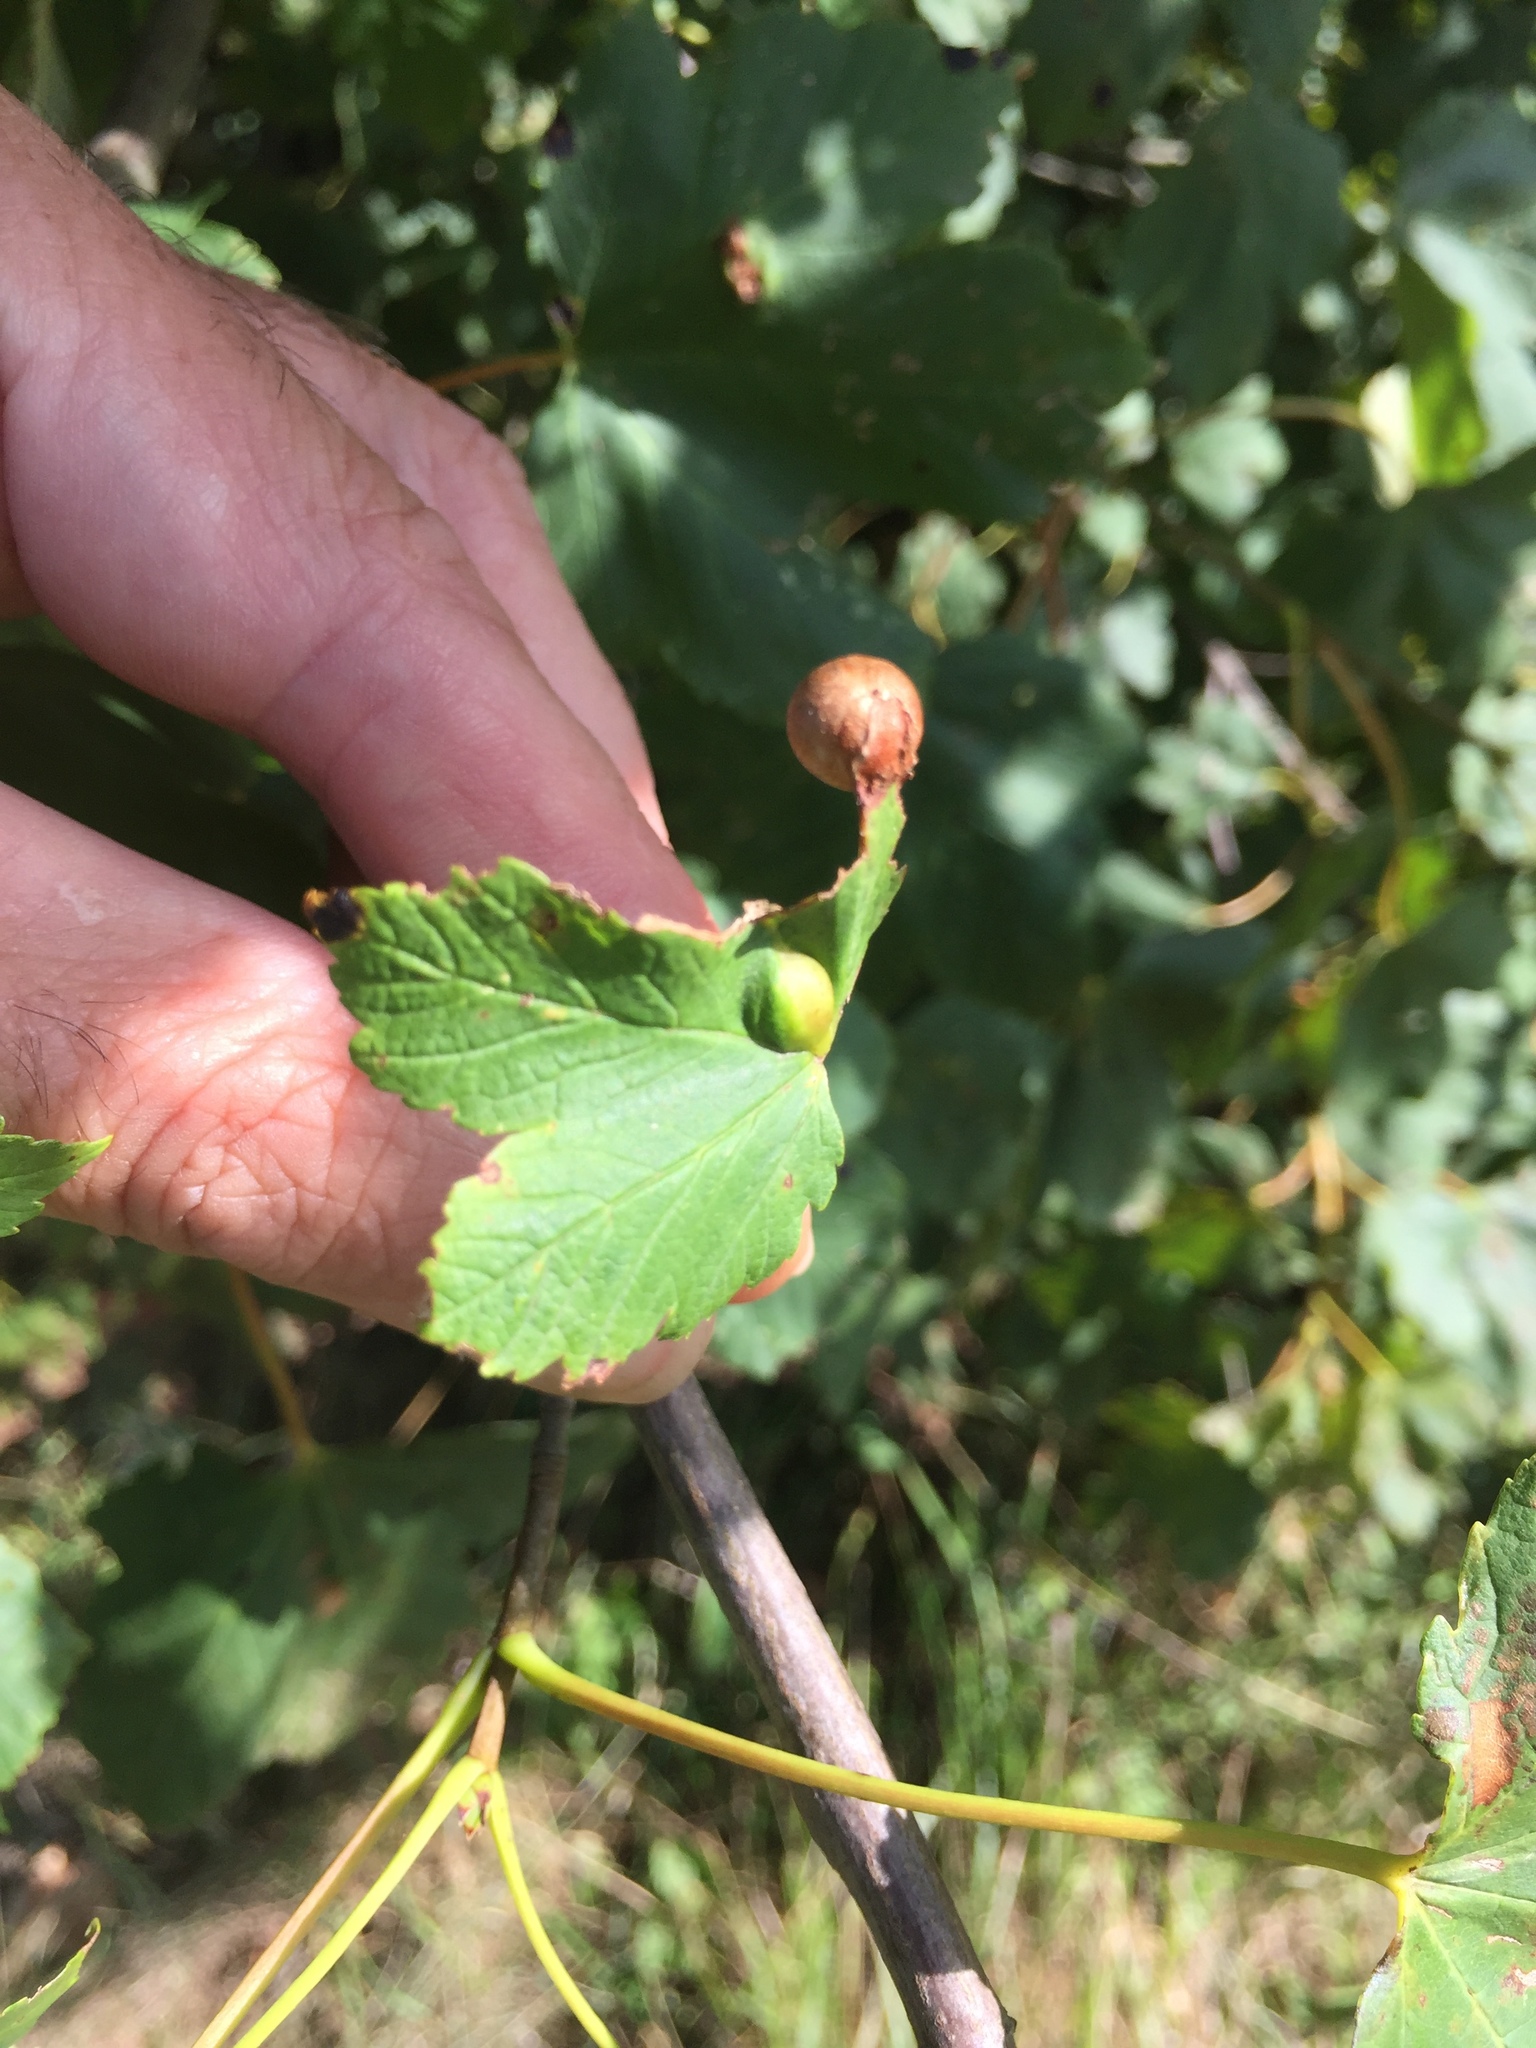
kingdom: Animalia
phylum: Arthropoda
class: Insecta
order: Hymenoptera
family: Cynipidae
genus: Pediaspis
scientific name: Pediaspis aceris
